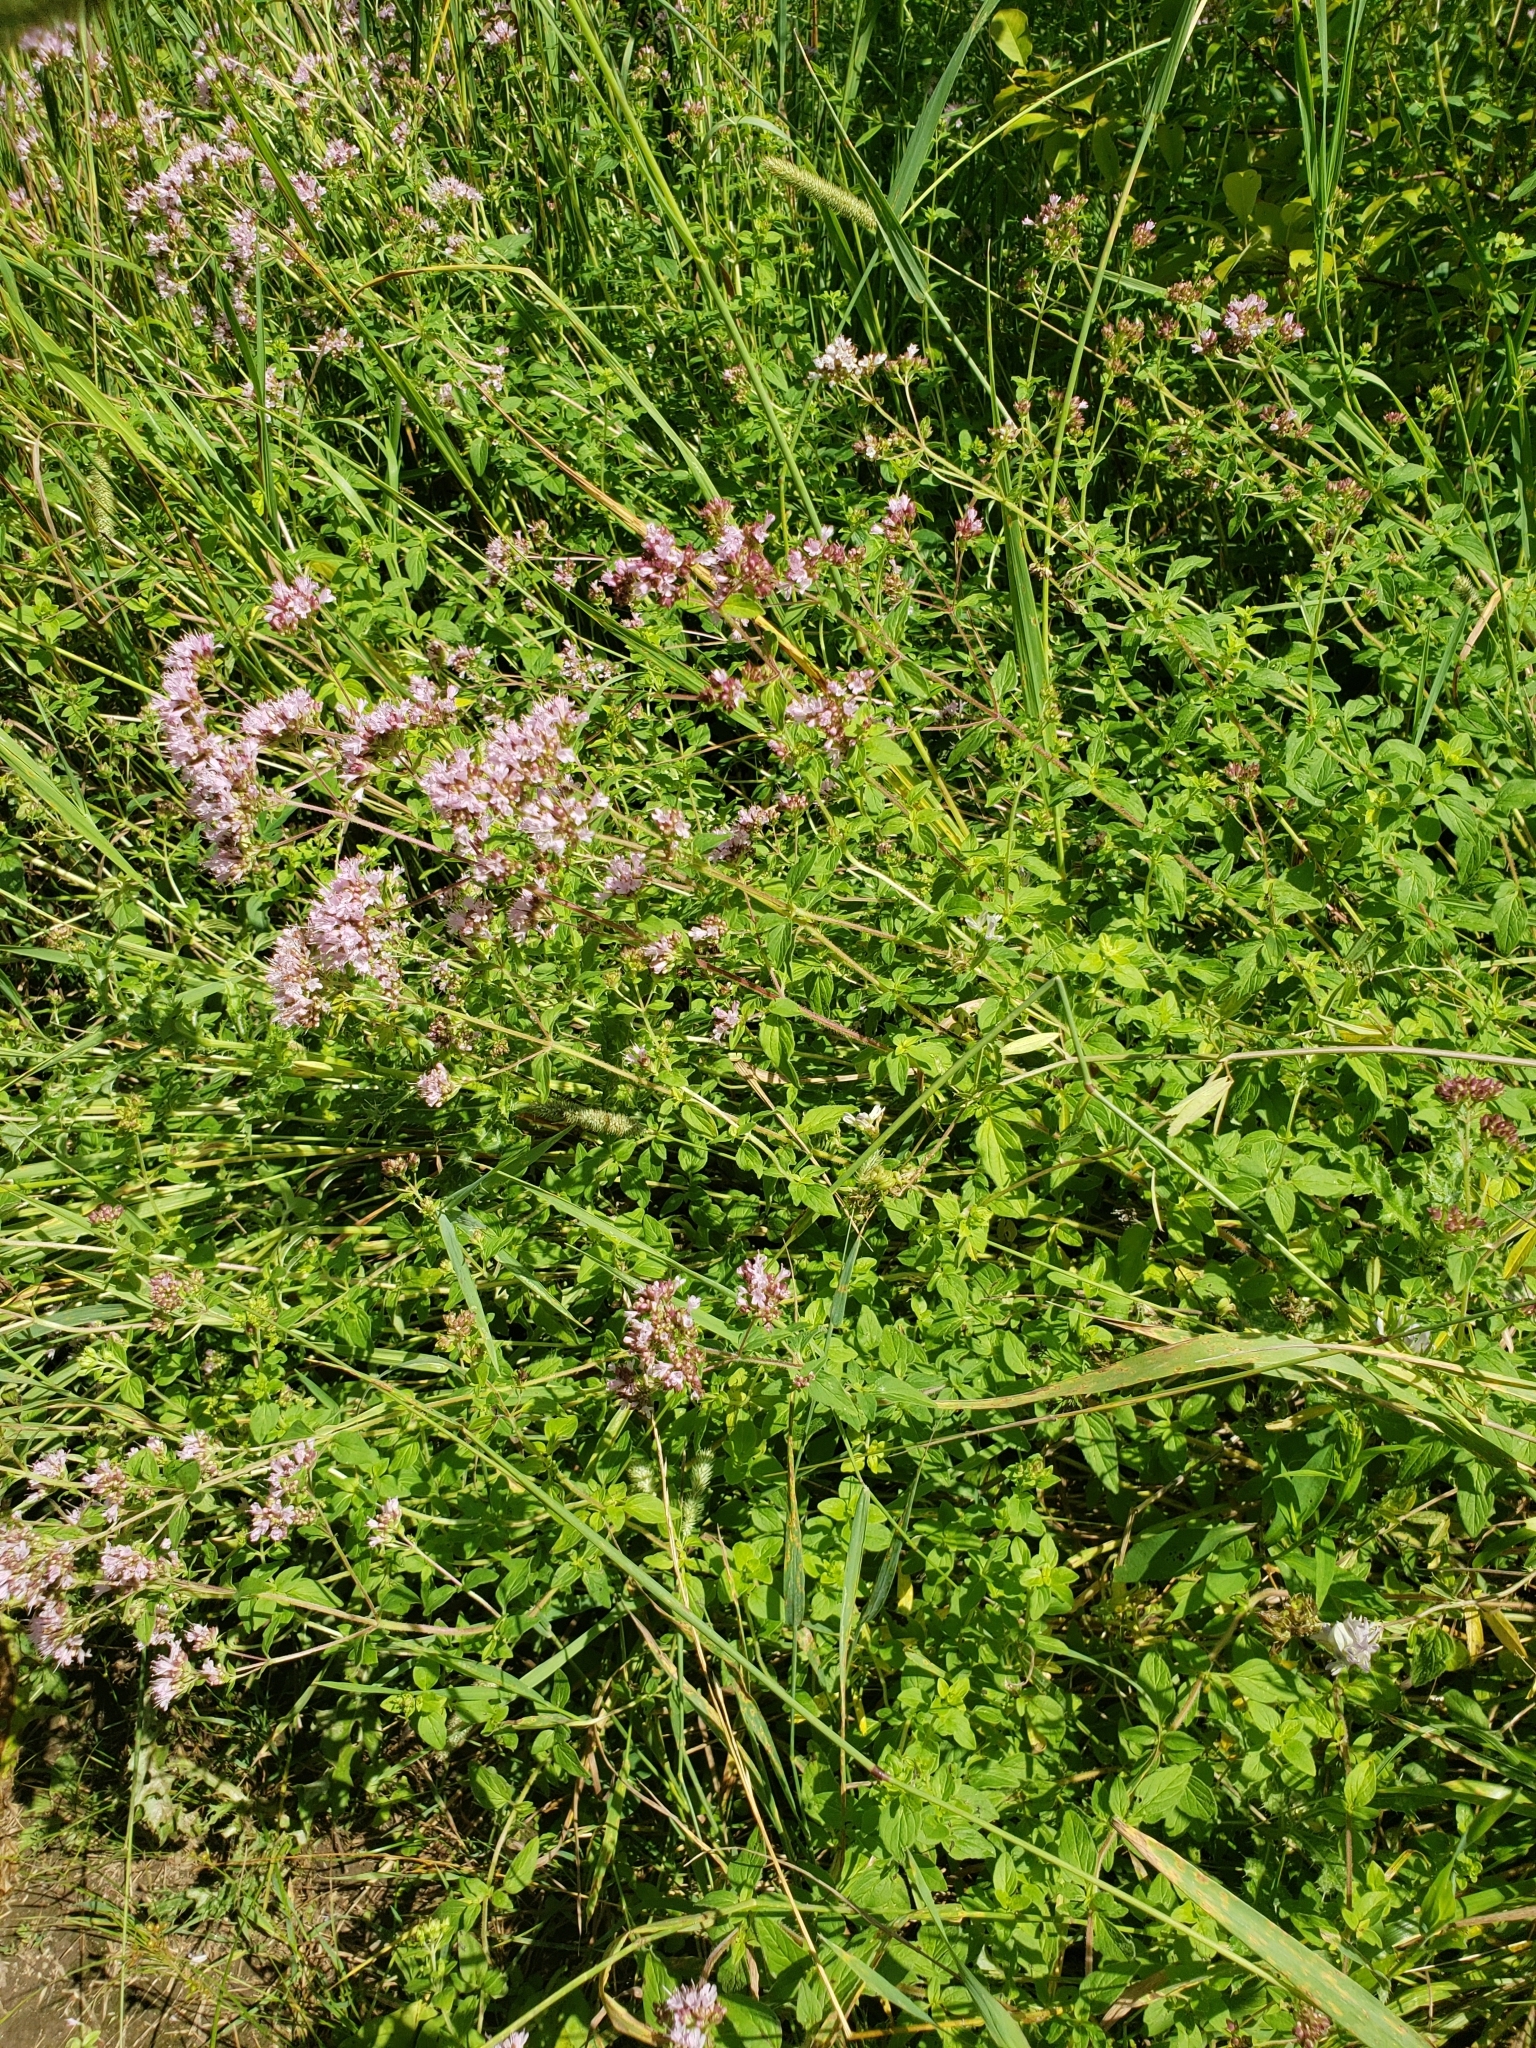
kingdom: Plantae
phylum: Tracheophyta
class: Magnoliopsida
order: Lamiales
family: Lamiaceae
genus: Origanum
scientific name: Origanum vulgare
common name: Wild marjoram
